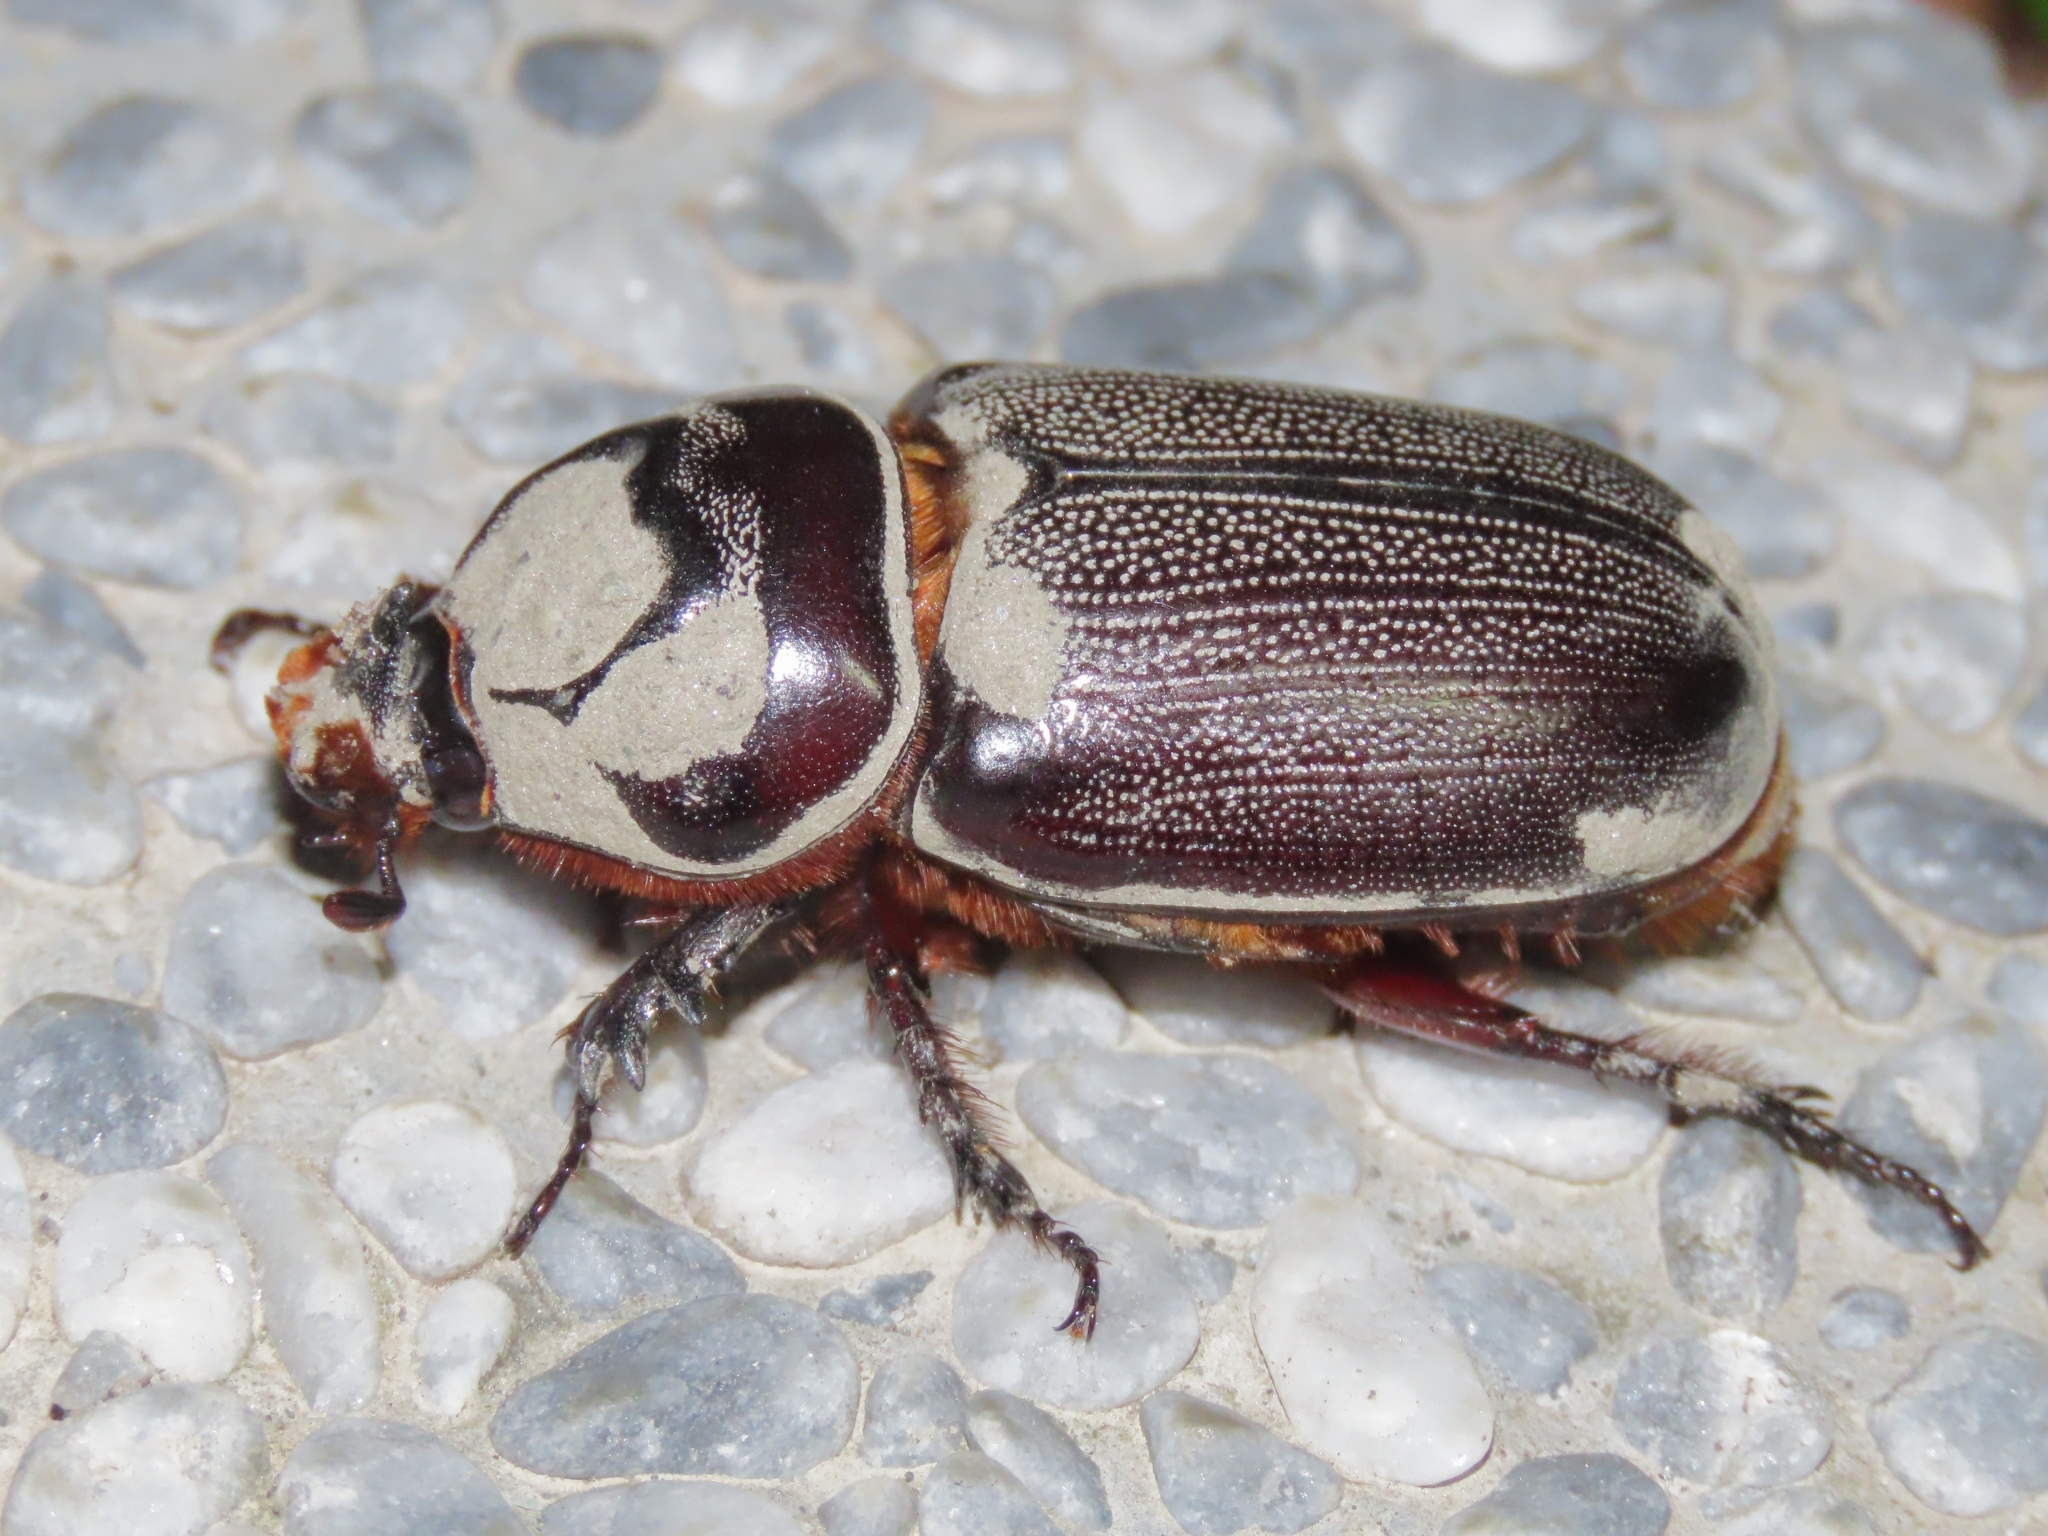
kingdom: Animalia
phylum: Arthropoda
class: Insecta
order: Coleoptera
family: Scarabaeidae
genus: Oryctes
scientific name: Oryctes rhinoceros
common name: Coconut rhinoceros beetle
